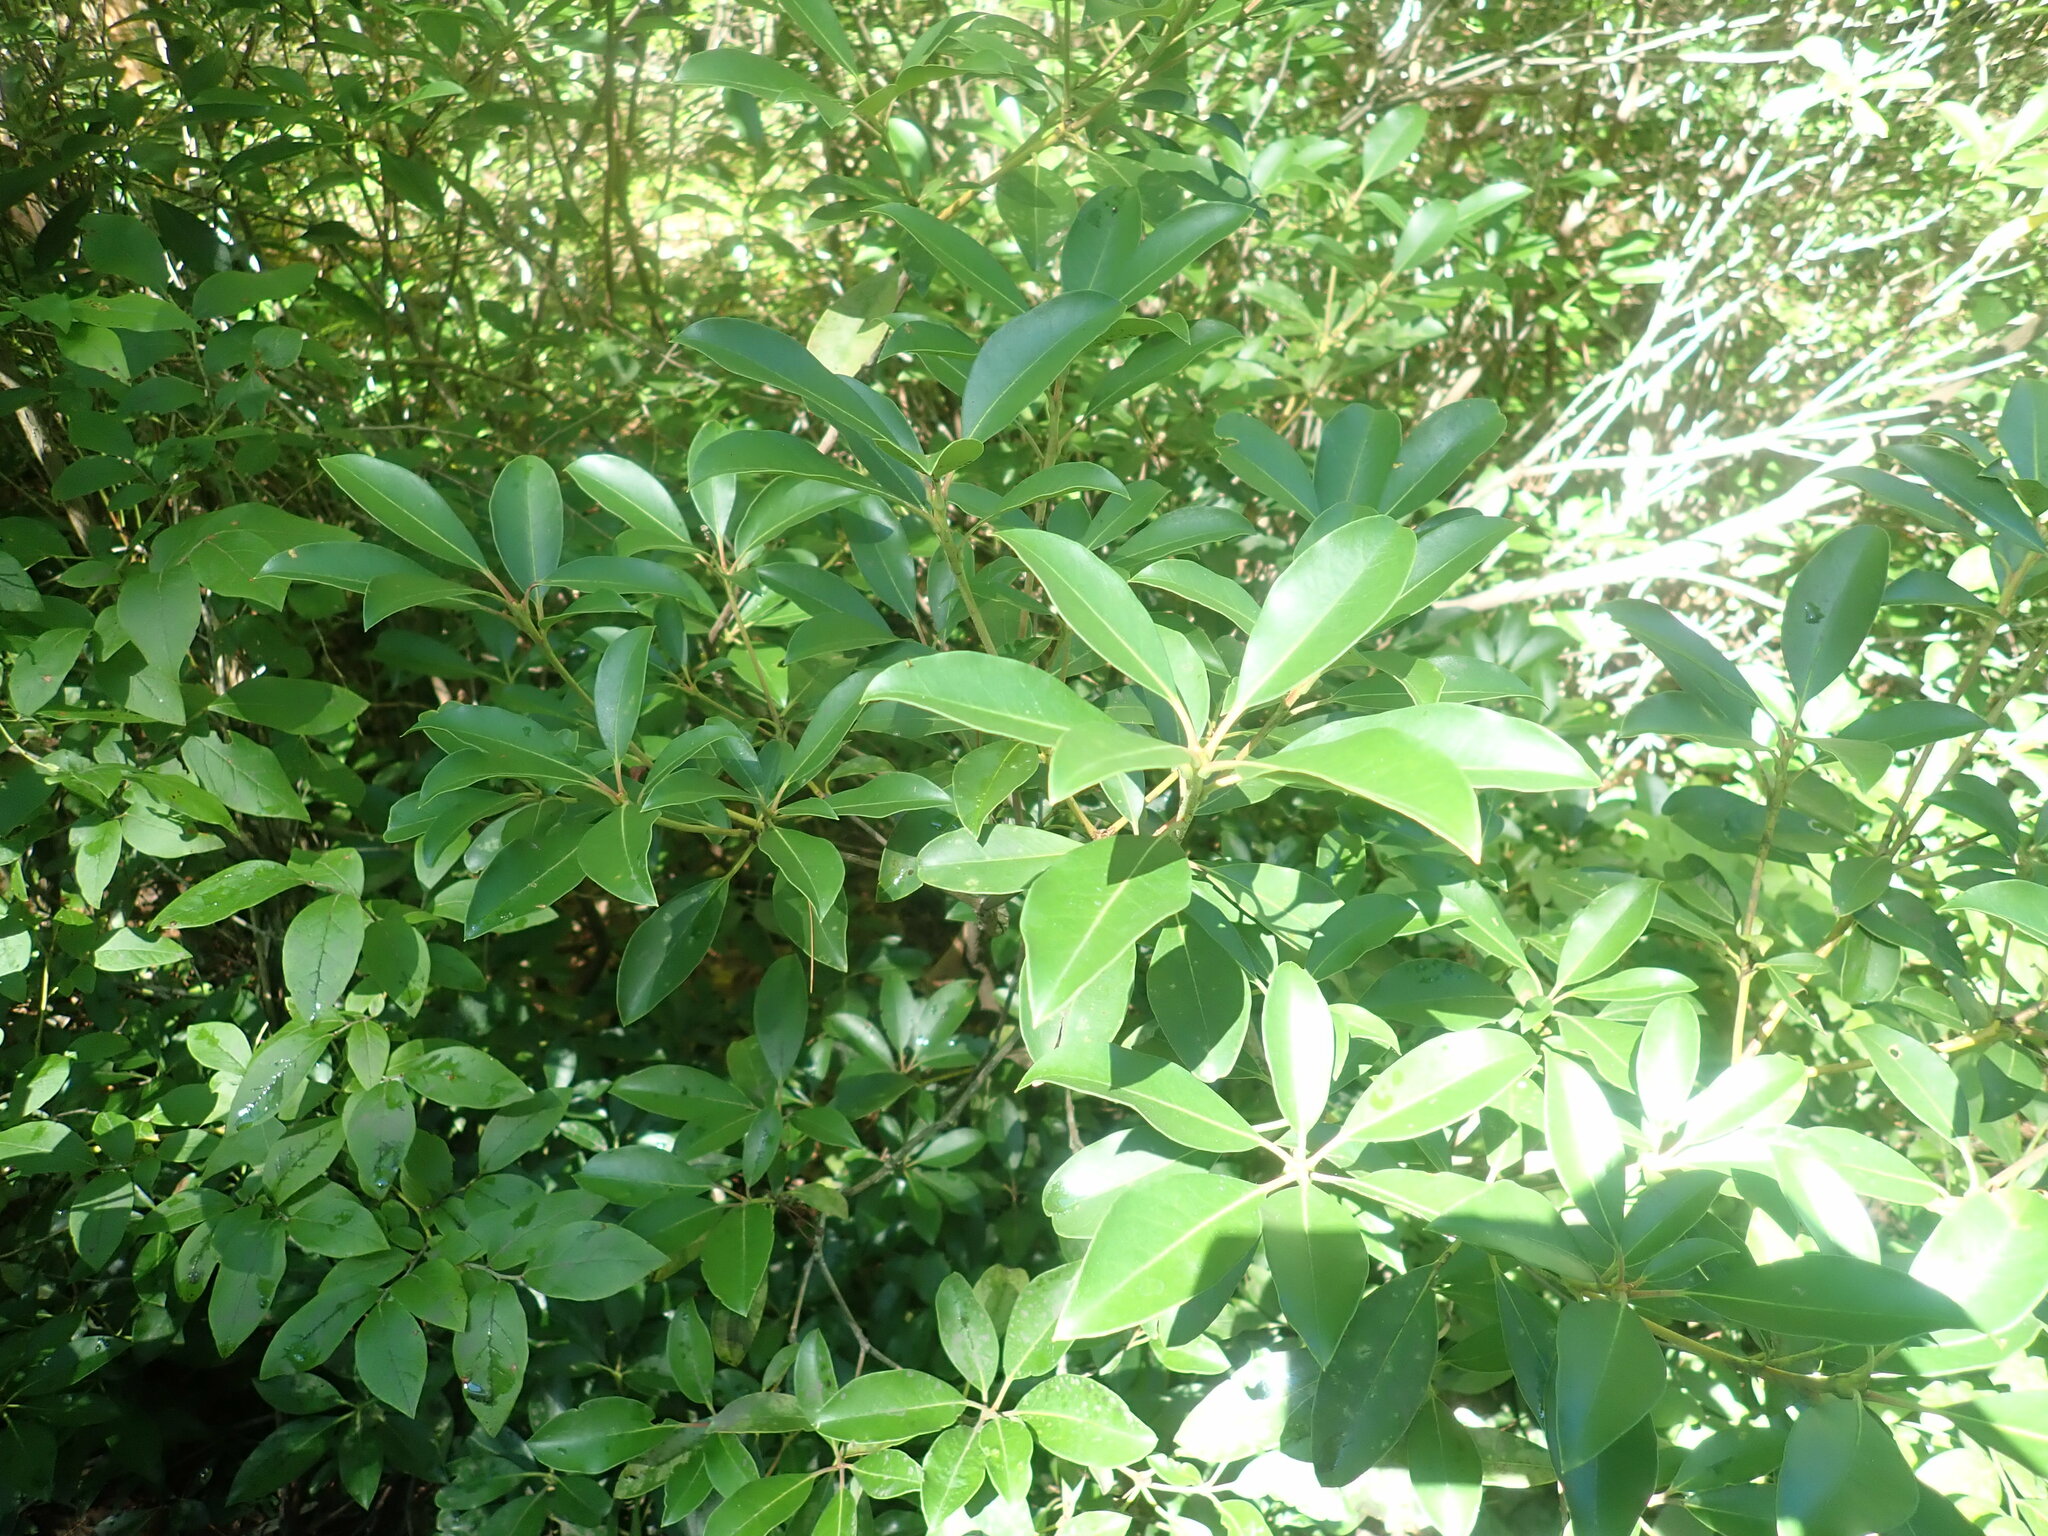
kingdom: Plantae
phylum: Tracheophyta
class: Magnoliopsida
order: Ericales
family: Ericaceae
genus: Kalmia
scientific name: Kalmia latifolia
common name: Mountain-laurel
